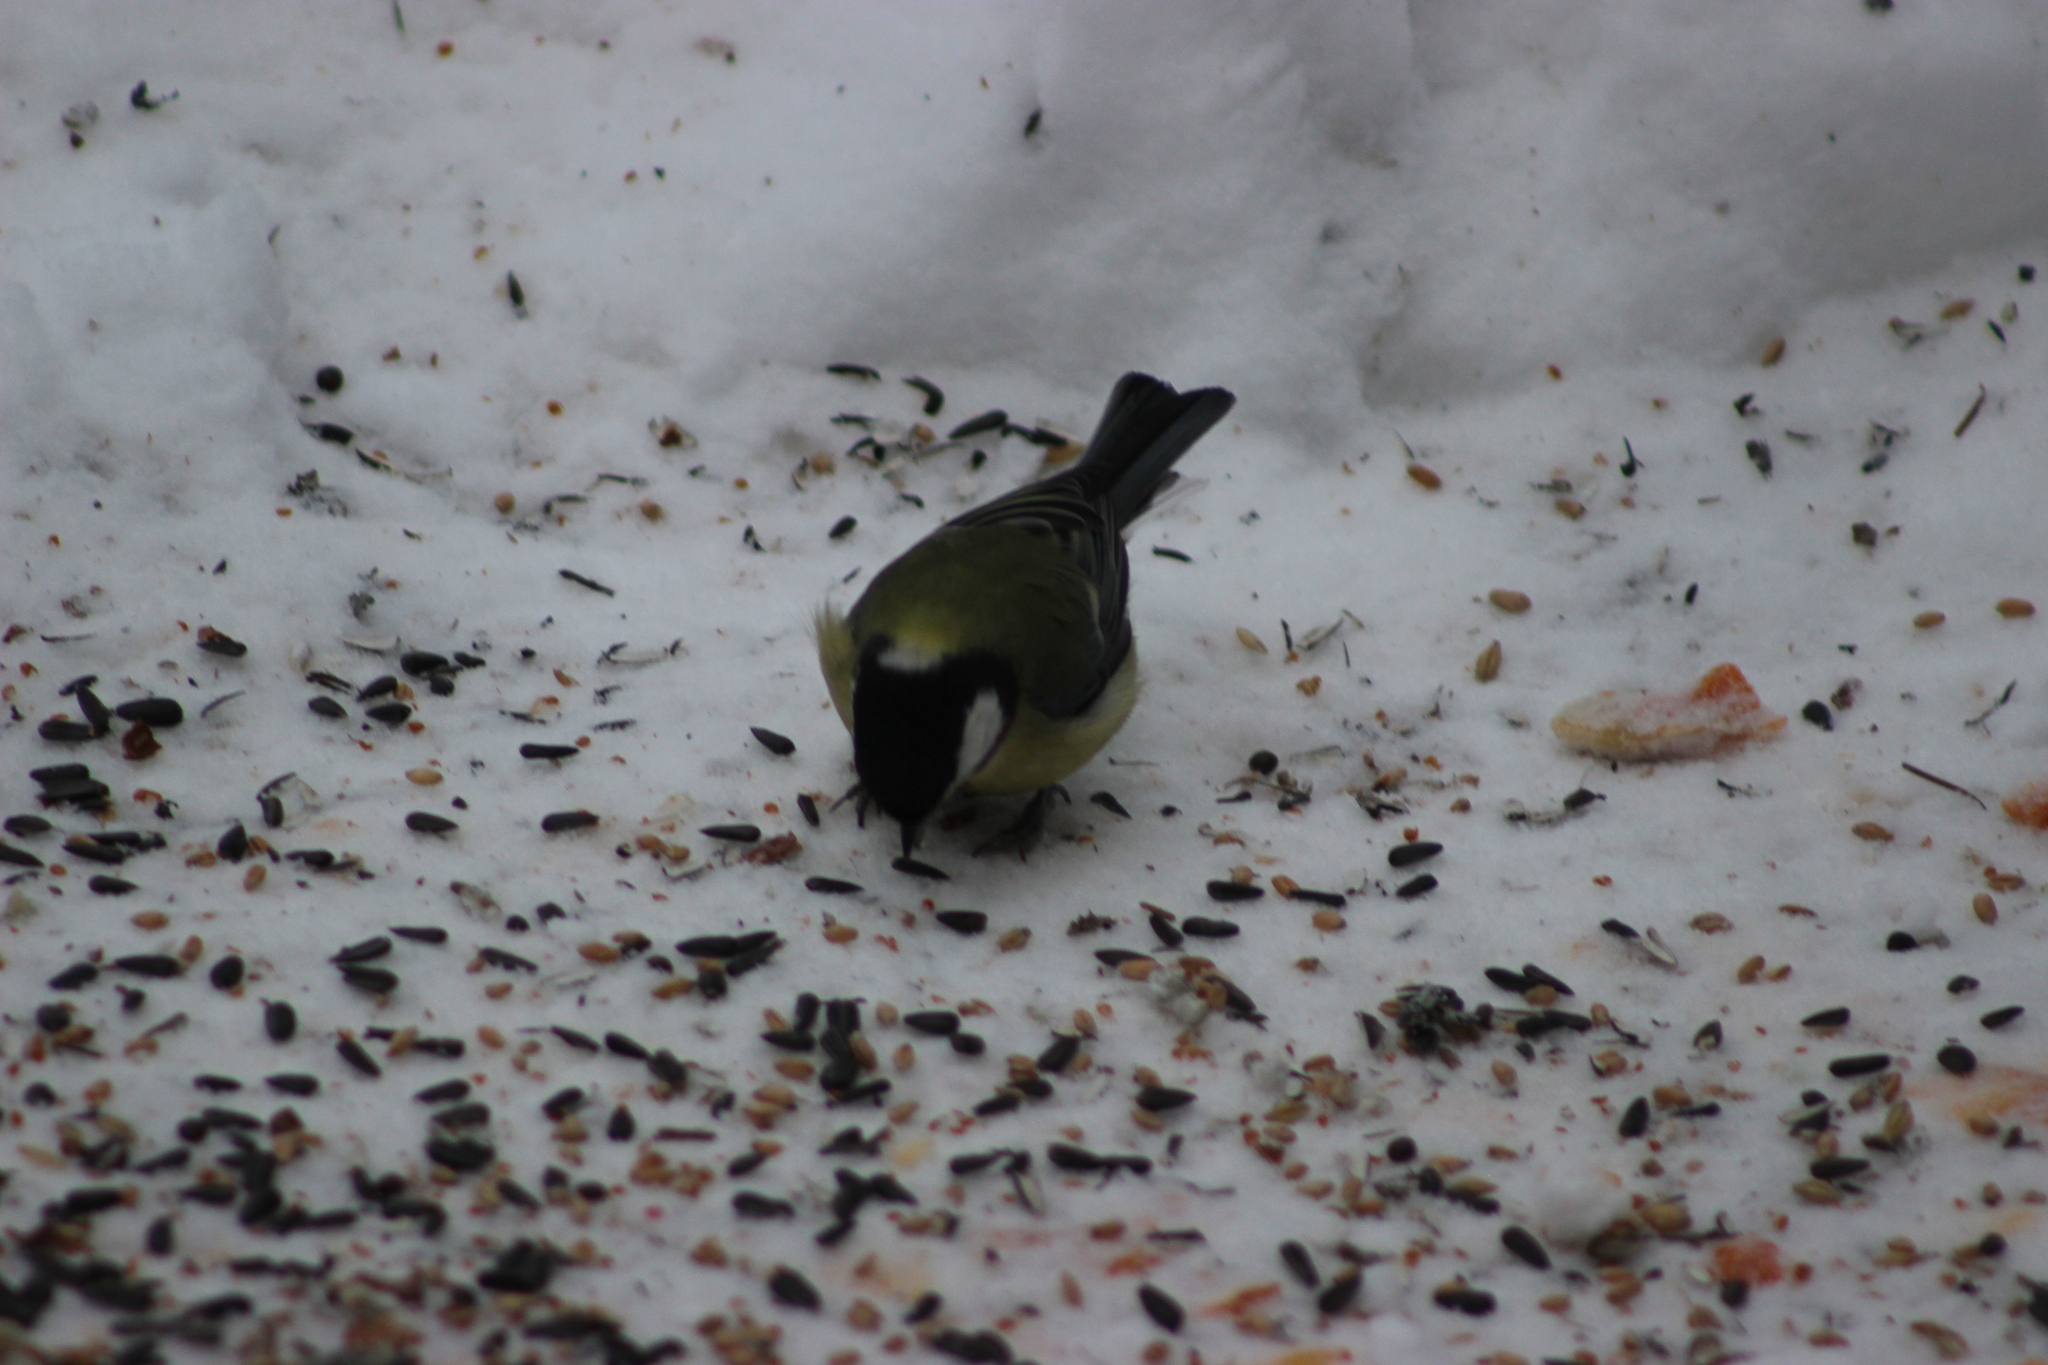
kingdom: Animalia
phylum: Chordata
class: Aves
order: Passeriformes
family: Paridae
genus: Parus
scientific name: Parus major
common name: Great tit
